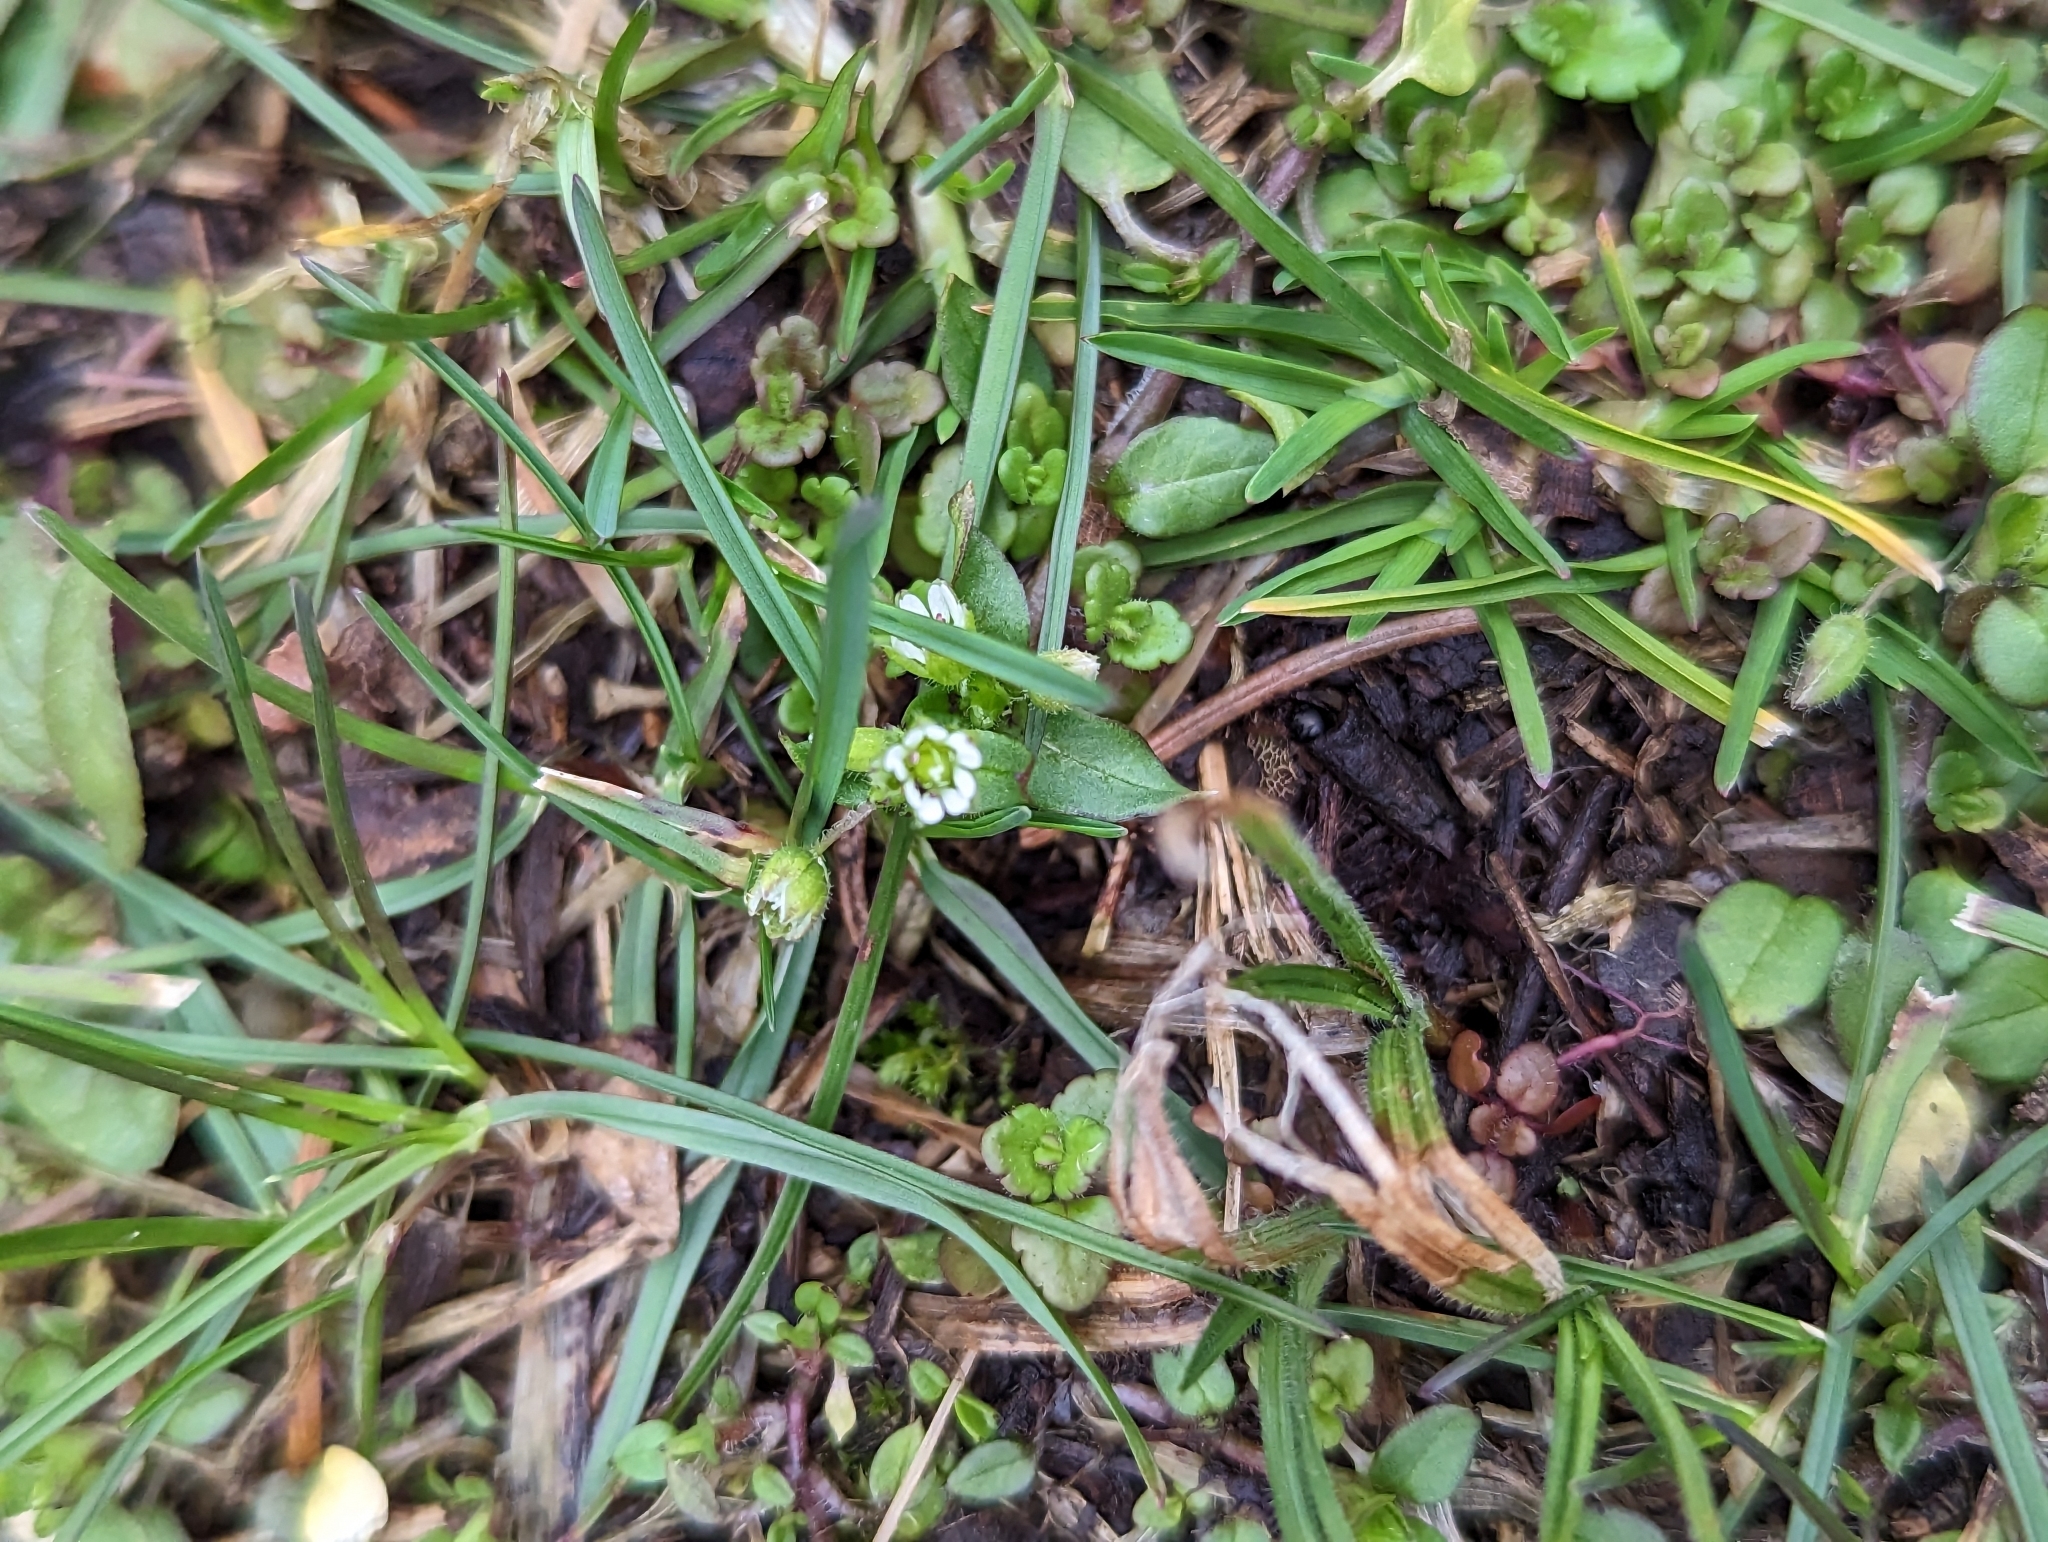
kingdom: Plantae
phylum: Tracheophyta
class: Magnoliopsida
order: Caryophyllales
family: Caryophyllaceae
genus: Stellaria
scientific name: Stellaria media
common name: Common chickweed
